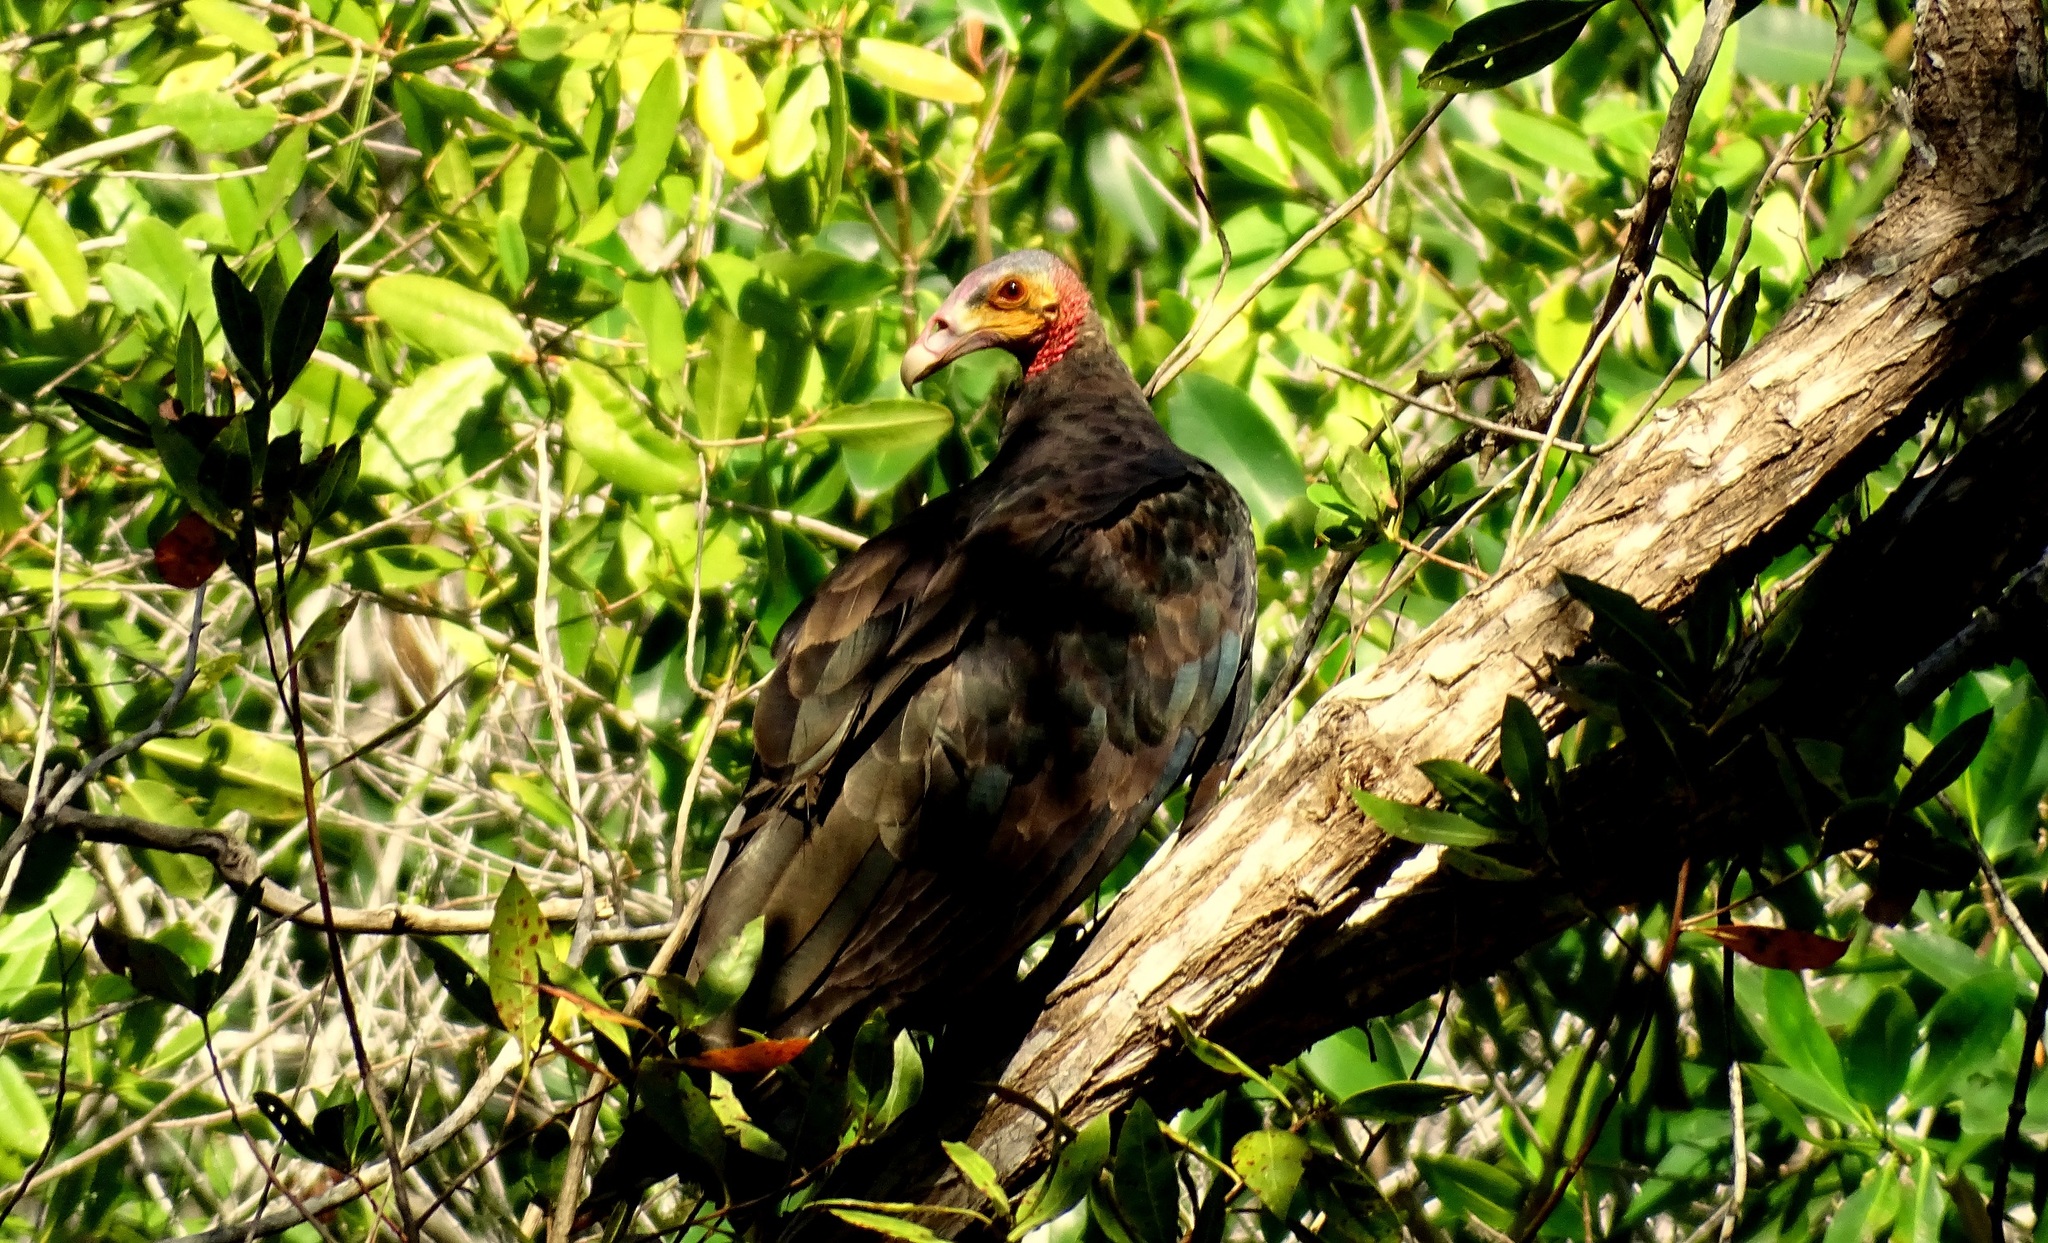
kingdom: Animalia
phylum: Chordata
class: Aves
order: Accipitriformes
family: Cathartidae
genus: Cathartes
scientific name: Cathartes burrovianus
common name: Lesser yellow-headed vulture
